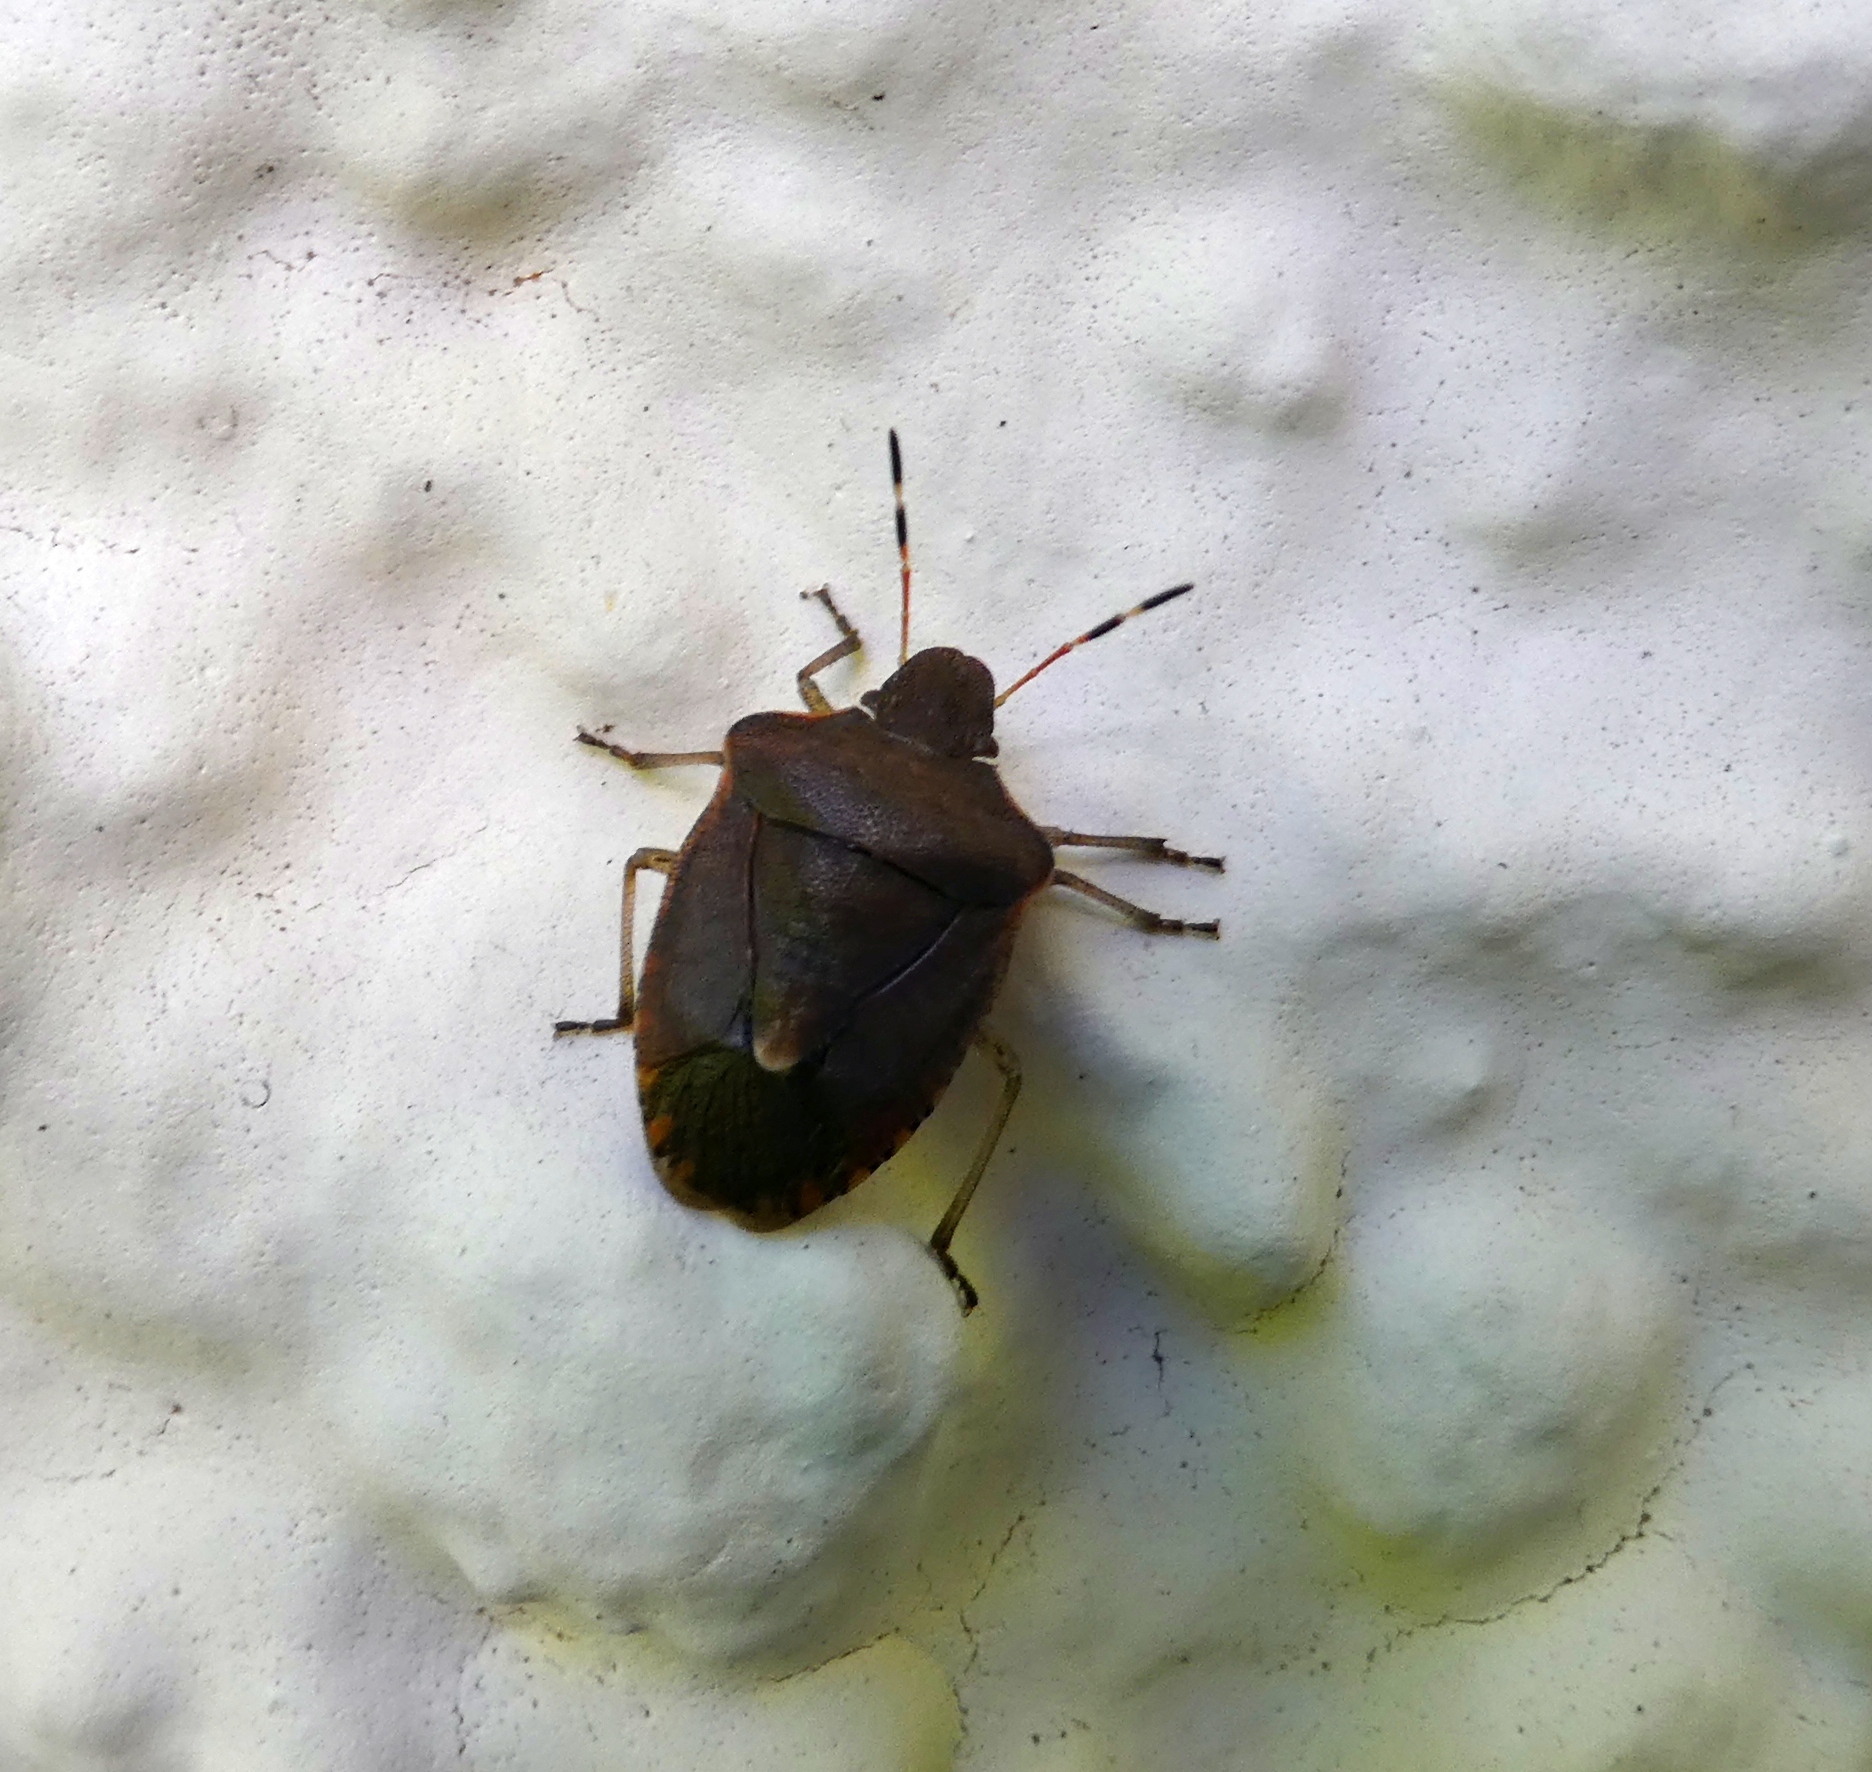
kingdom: Animalia
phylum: Arthropoda
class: Insecta
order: Hemiptera
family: Pentatomidae
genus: Holcostethus
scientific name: Holcostethus strictus
